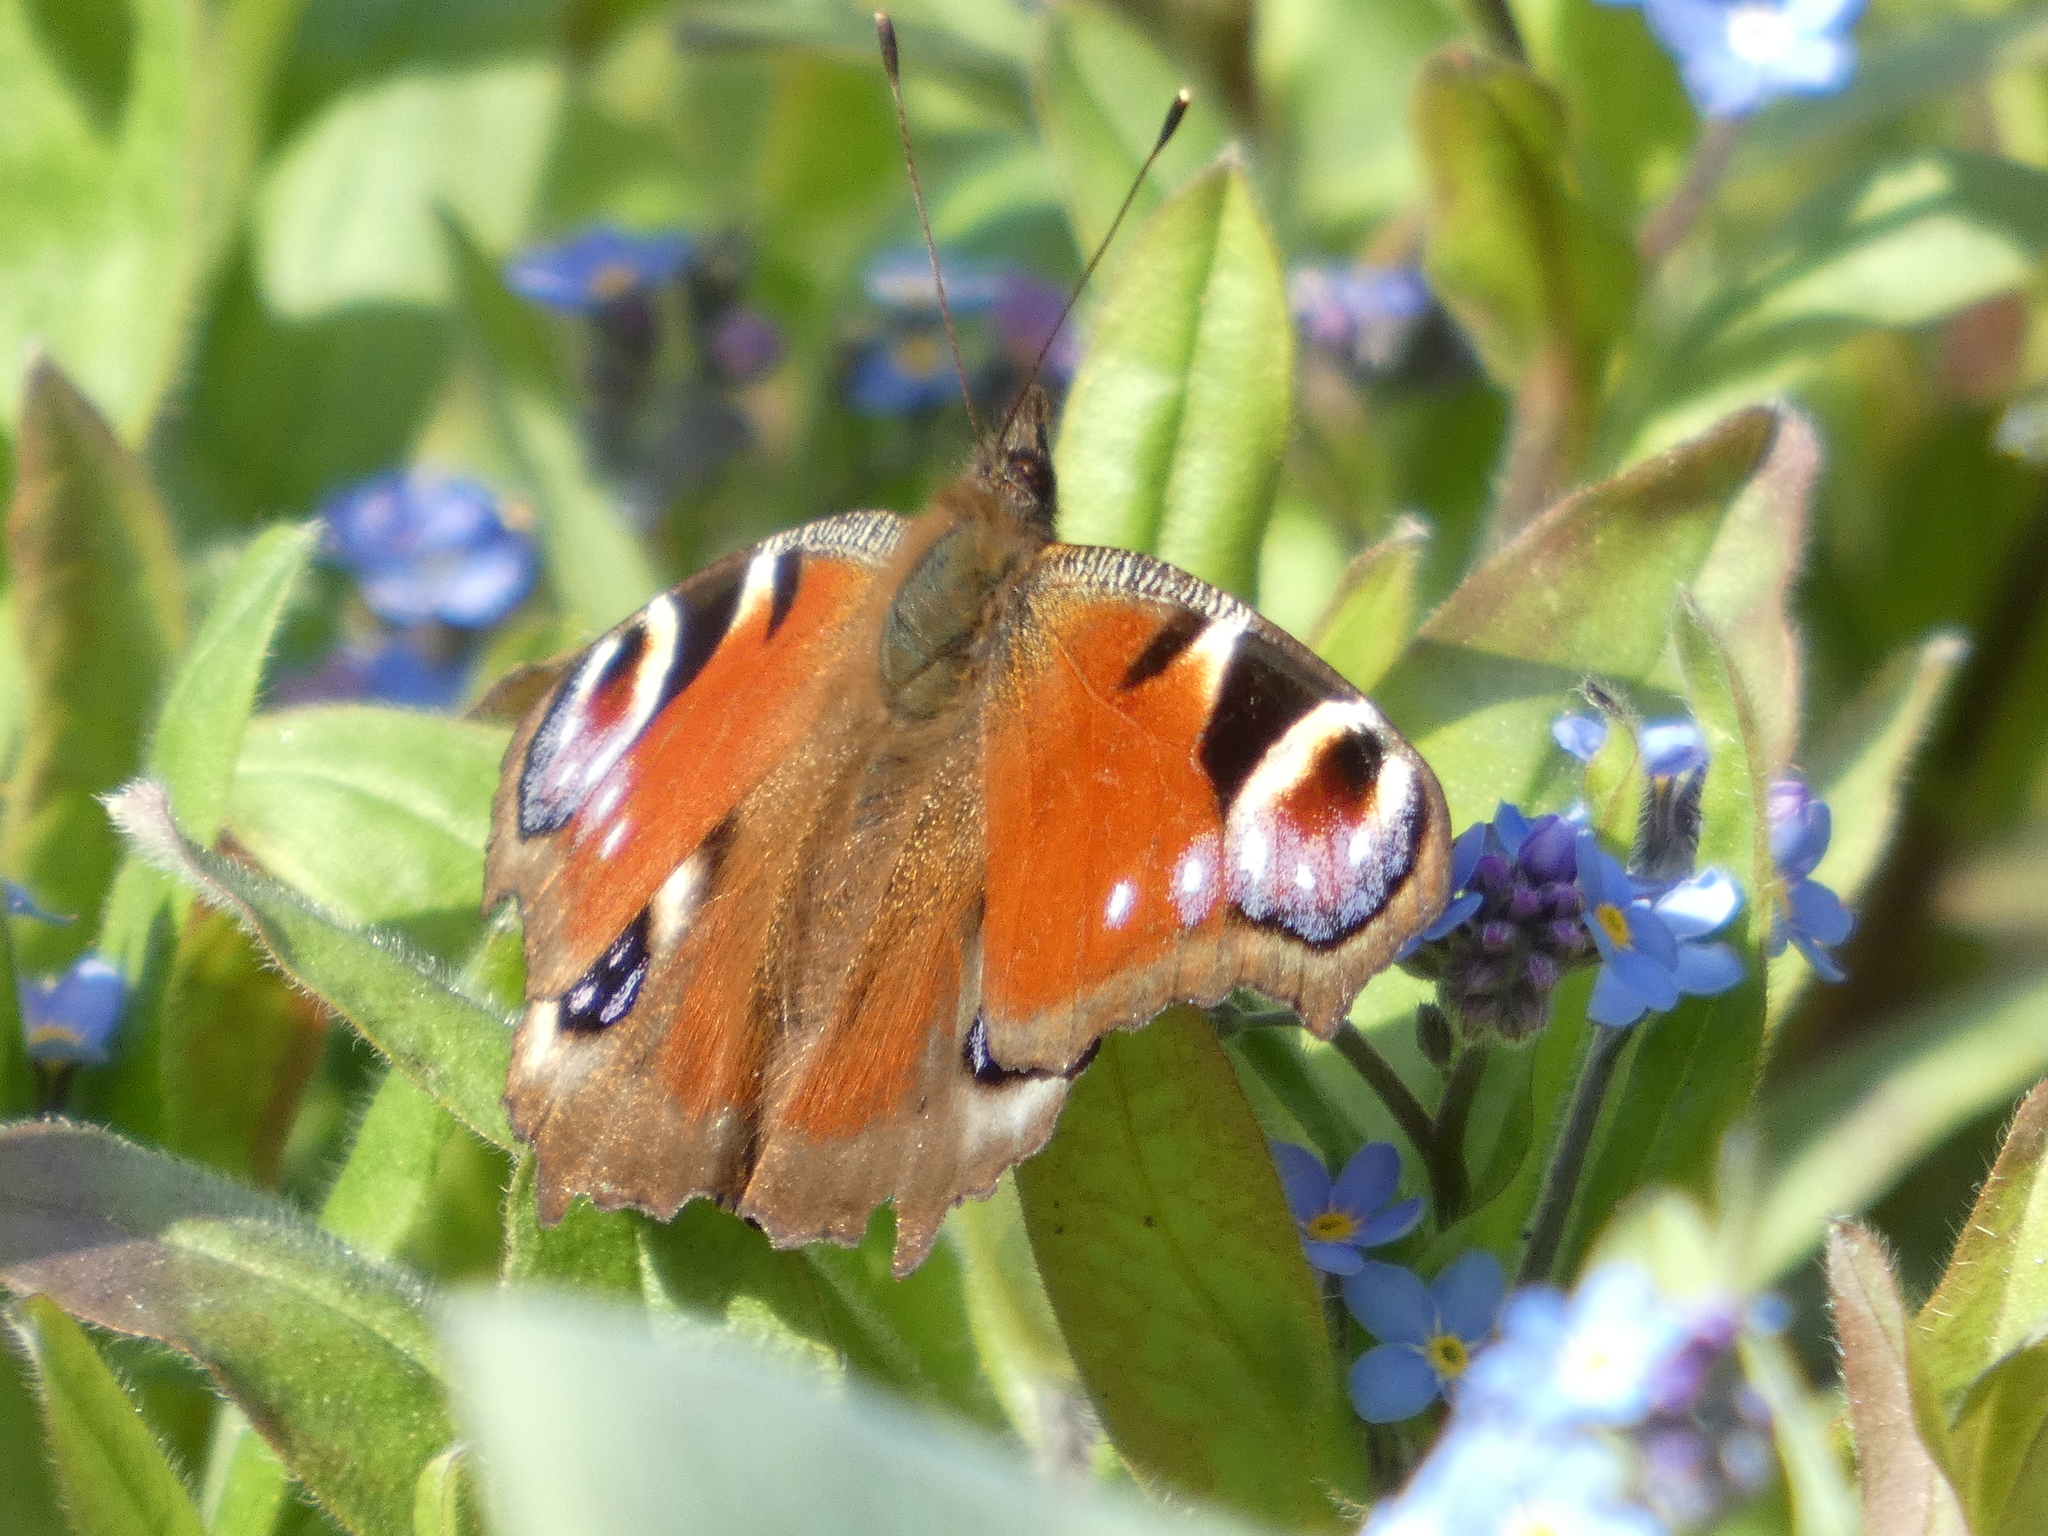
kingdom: Animalia
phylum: Arthropoda
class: Insecta
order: Lepidoptera
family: Nymphalidae
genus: Aglais
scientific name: Aglais io
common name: Peacock
